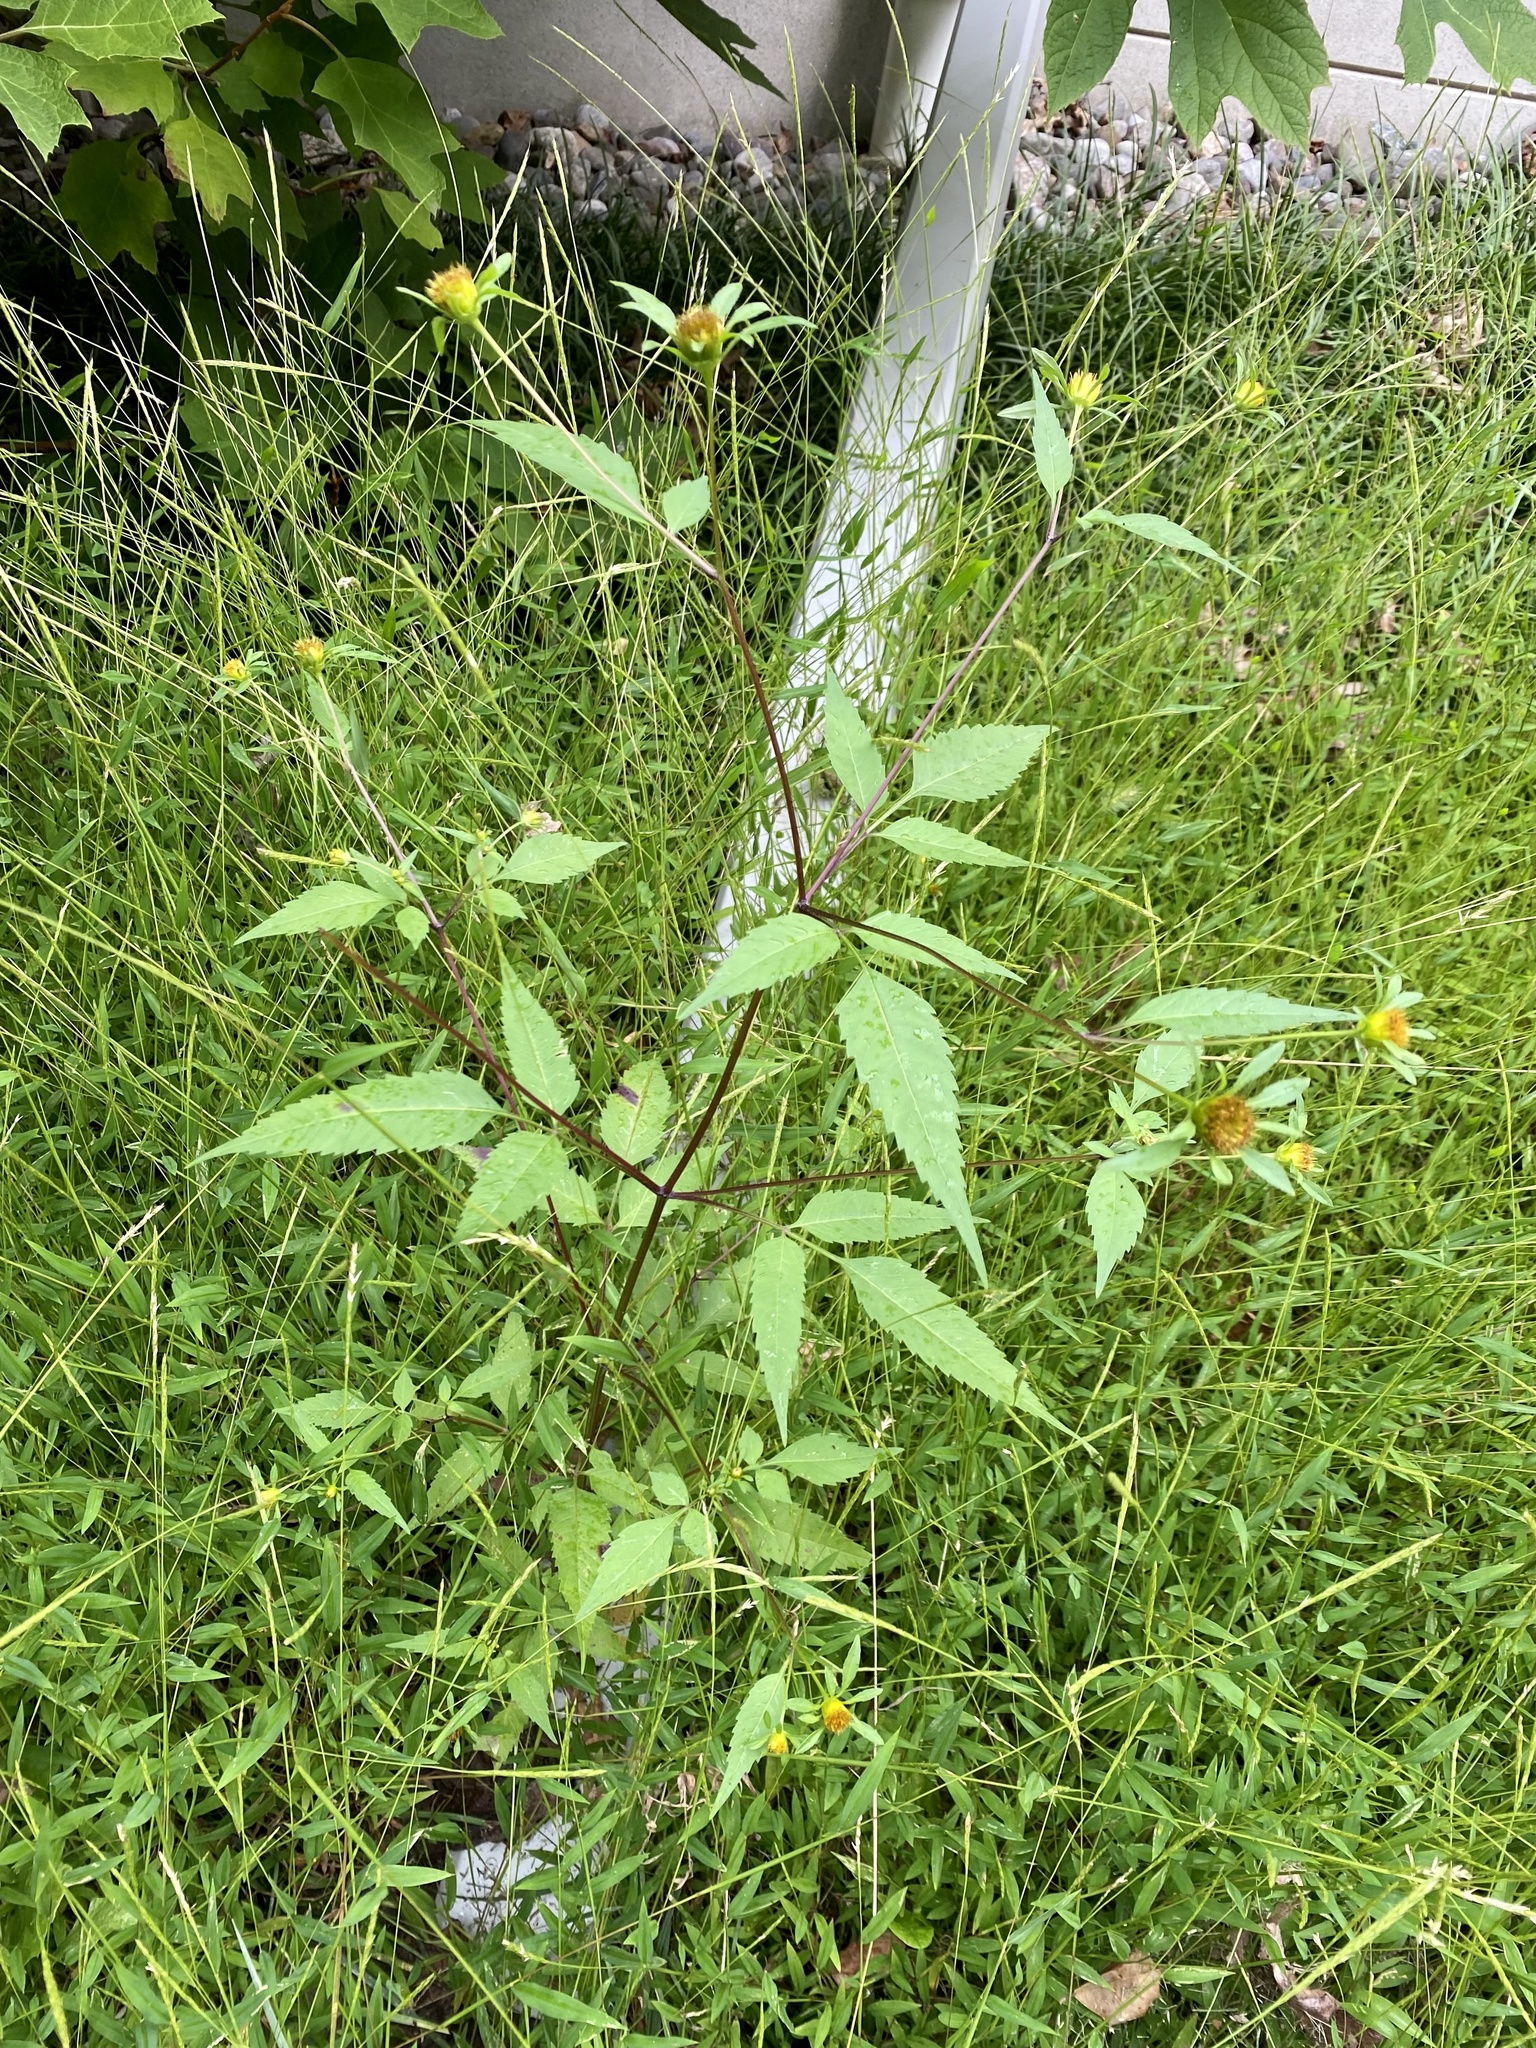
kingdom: Plantae
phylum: Tracheophyta
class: Magnoliopsida
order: Asterales
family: Asteraceae
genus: Bidens
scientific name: Bidens frondosa
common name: Beggarticks
